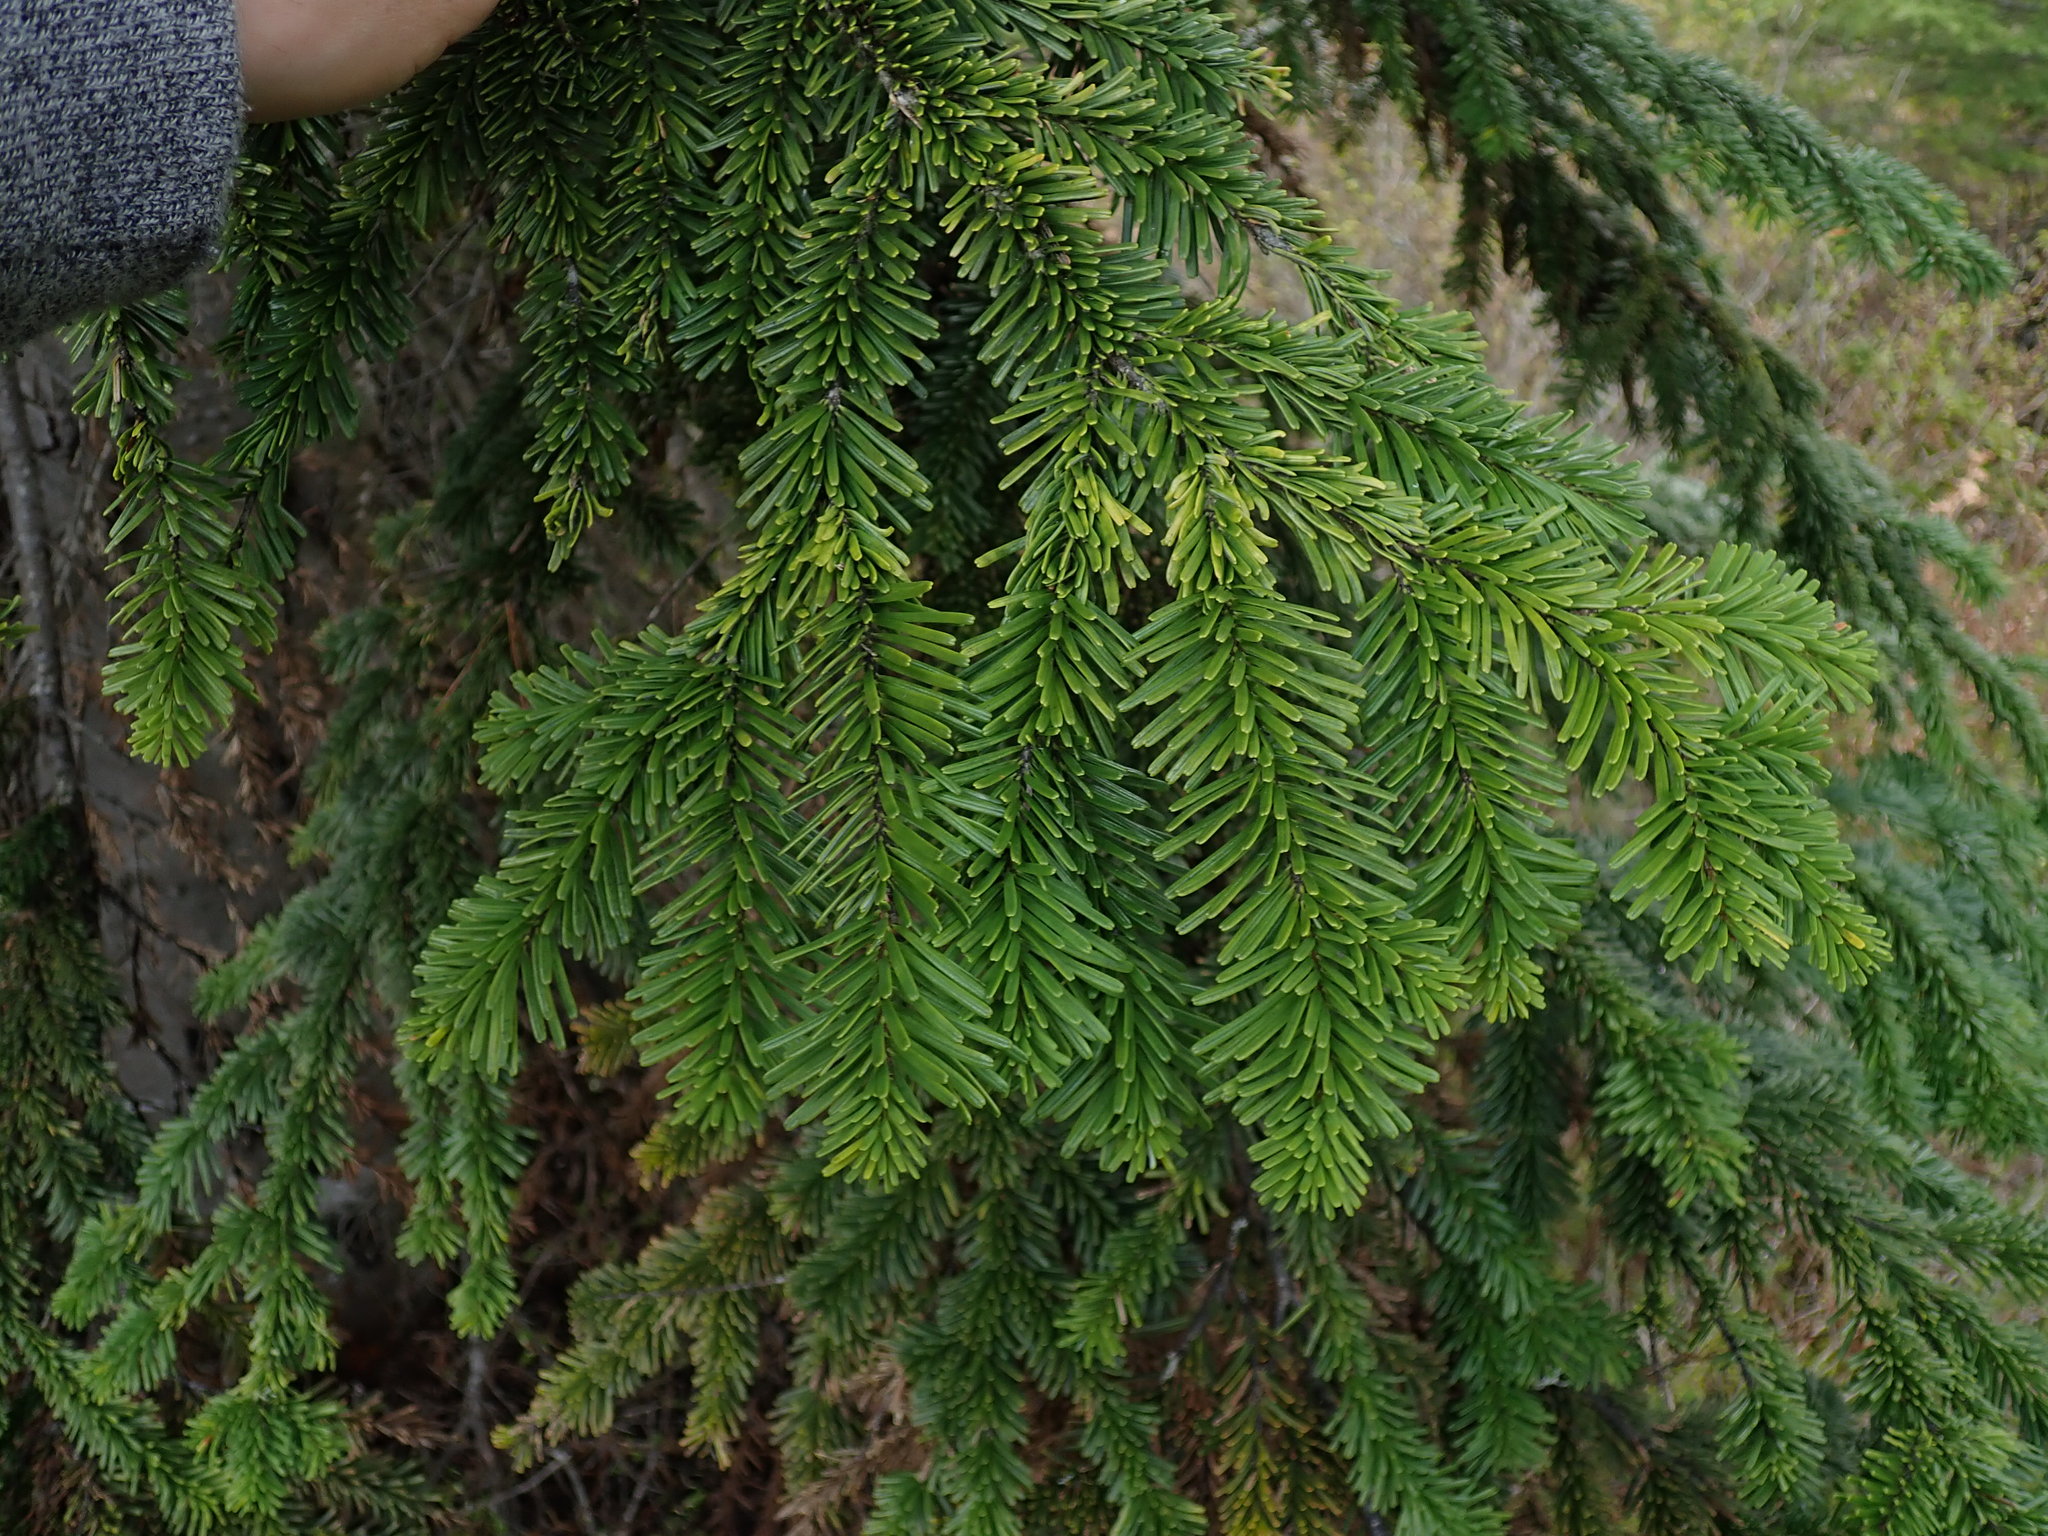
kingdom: Plantae
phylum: Tracheophyta
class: Pinopsida
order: Pinales
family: Pinaceae
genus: Abies
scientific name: Abies amabilis
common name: Pacific silver fir
